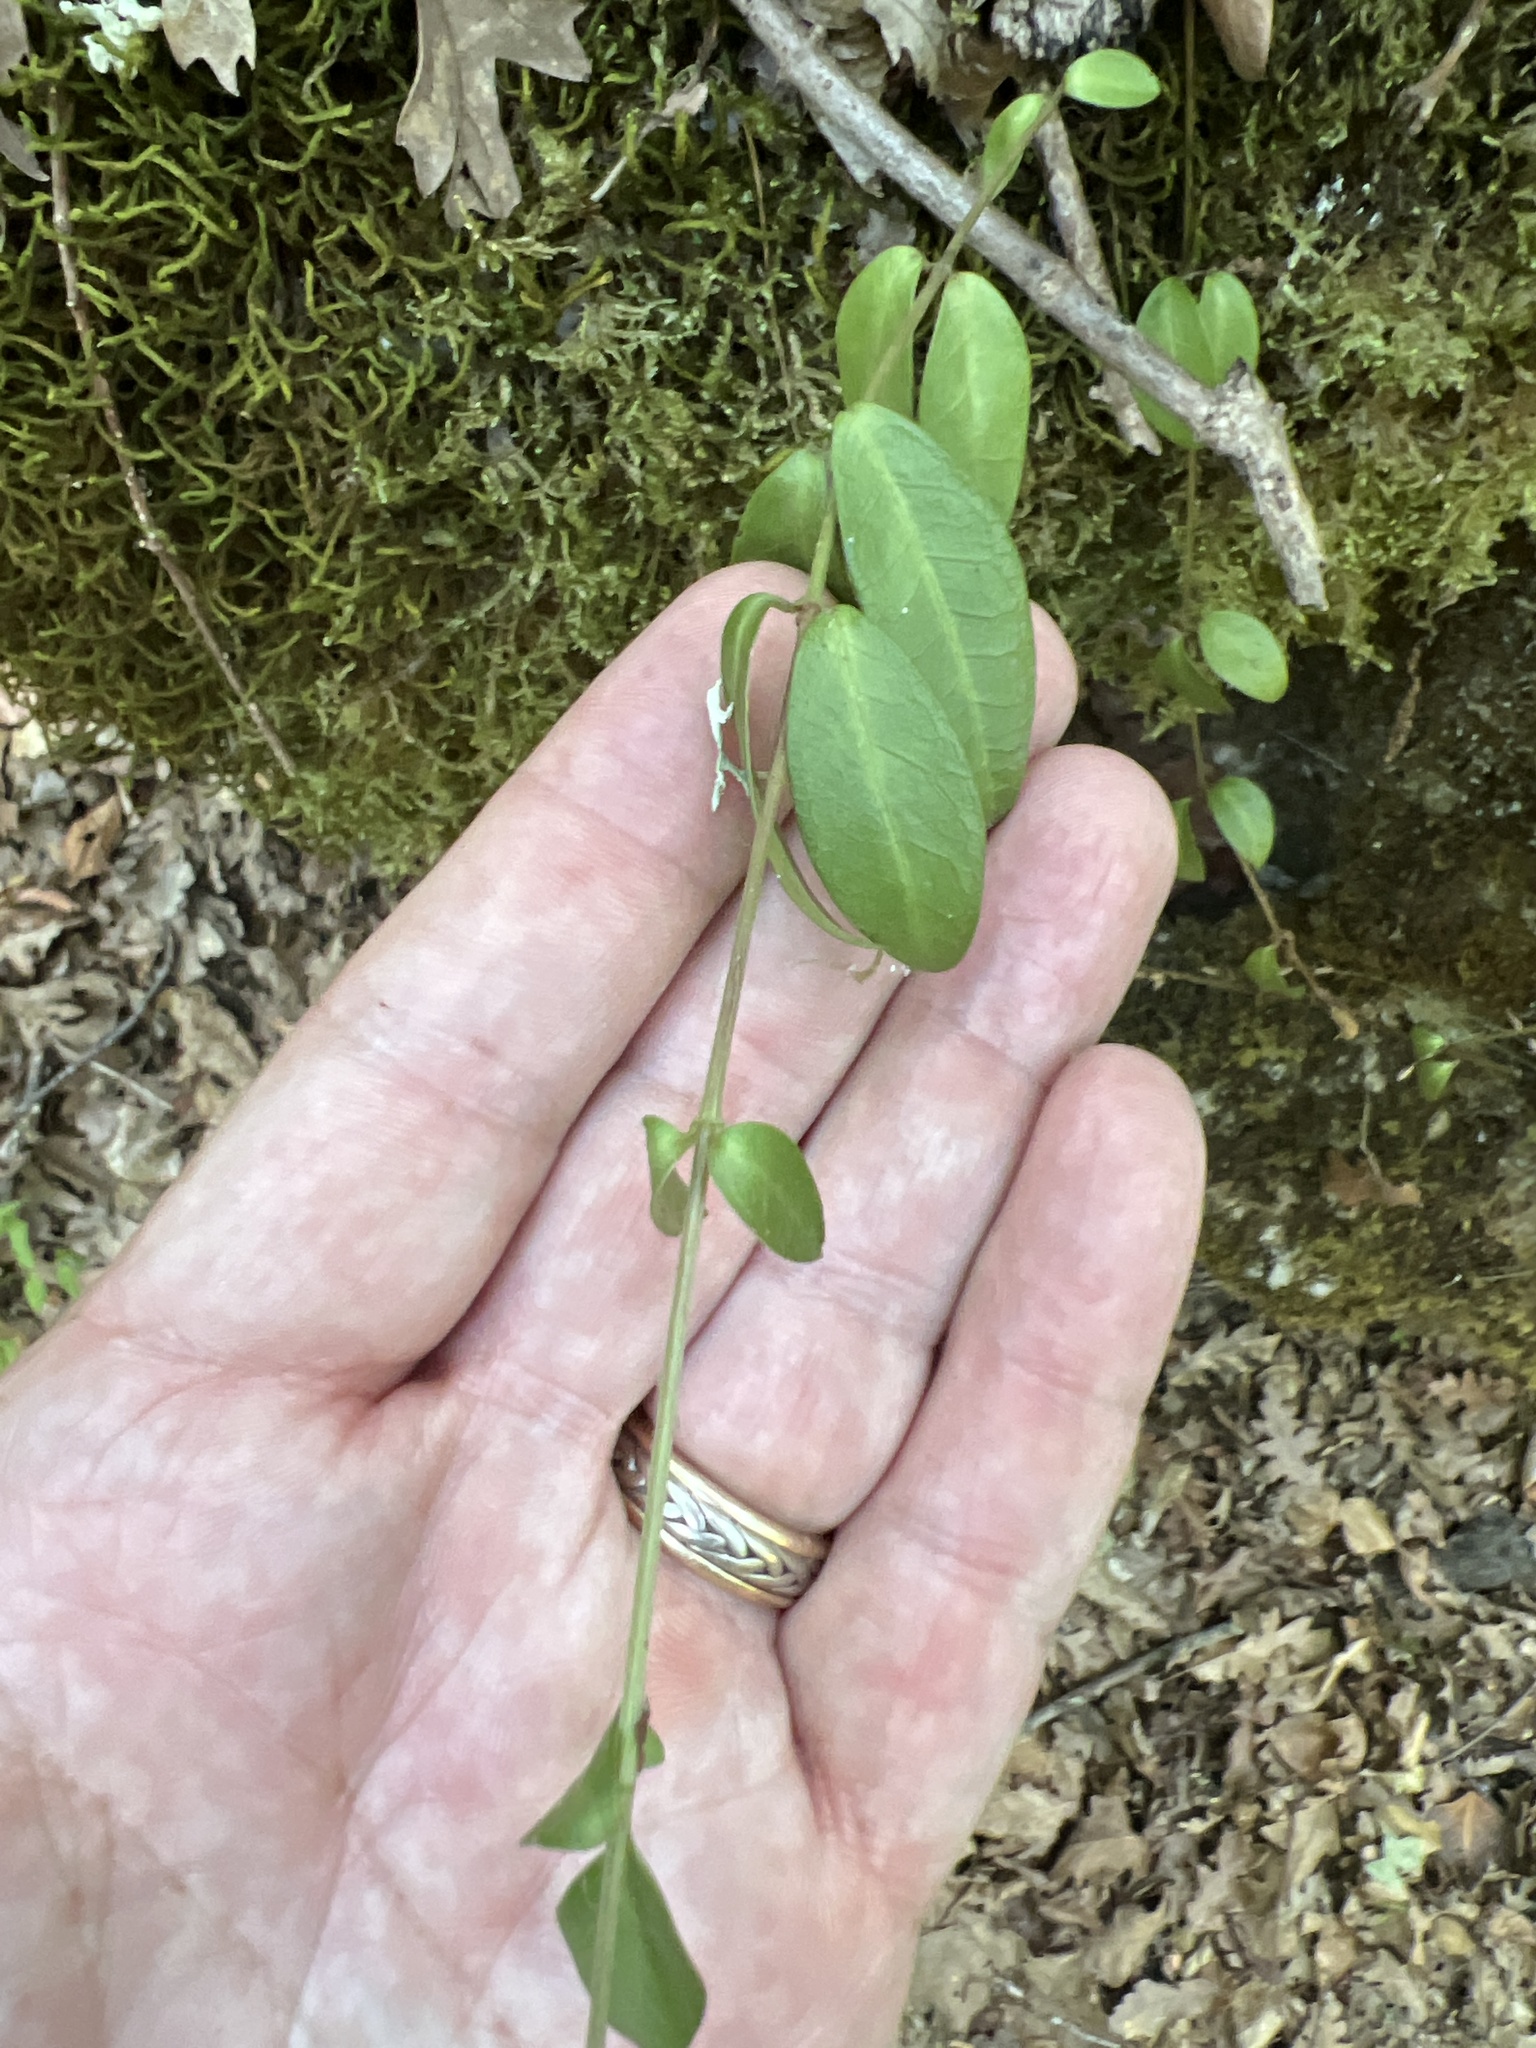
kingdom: Plantae
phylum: Tracheophyta
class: Magnoliopsida
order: Gentianales
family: Apocynaceae
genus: Vinca
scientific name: Vinca minor
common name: Lesser periwinkle
